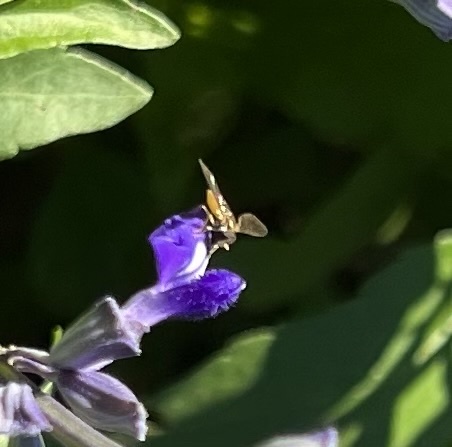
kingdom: Animalia
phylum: Arthropoda
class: Insecta
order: Diptera
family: Syrphidae
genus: Toxomerus
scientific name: Toxomerus marginatus
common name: Syrphid fly
